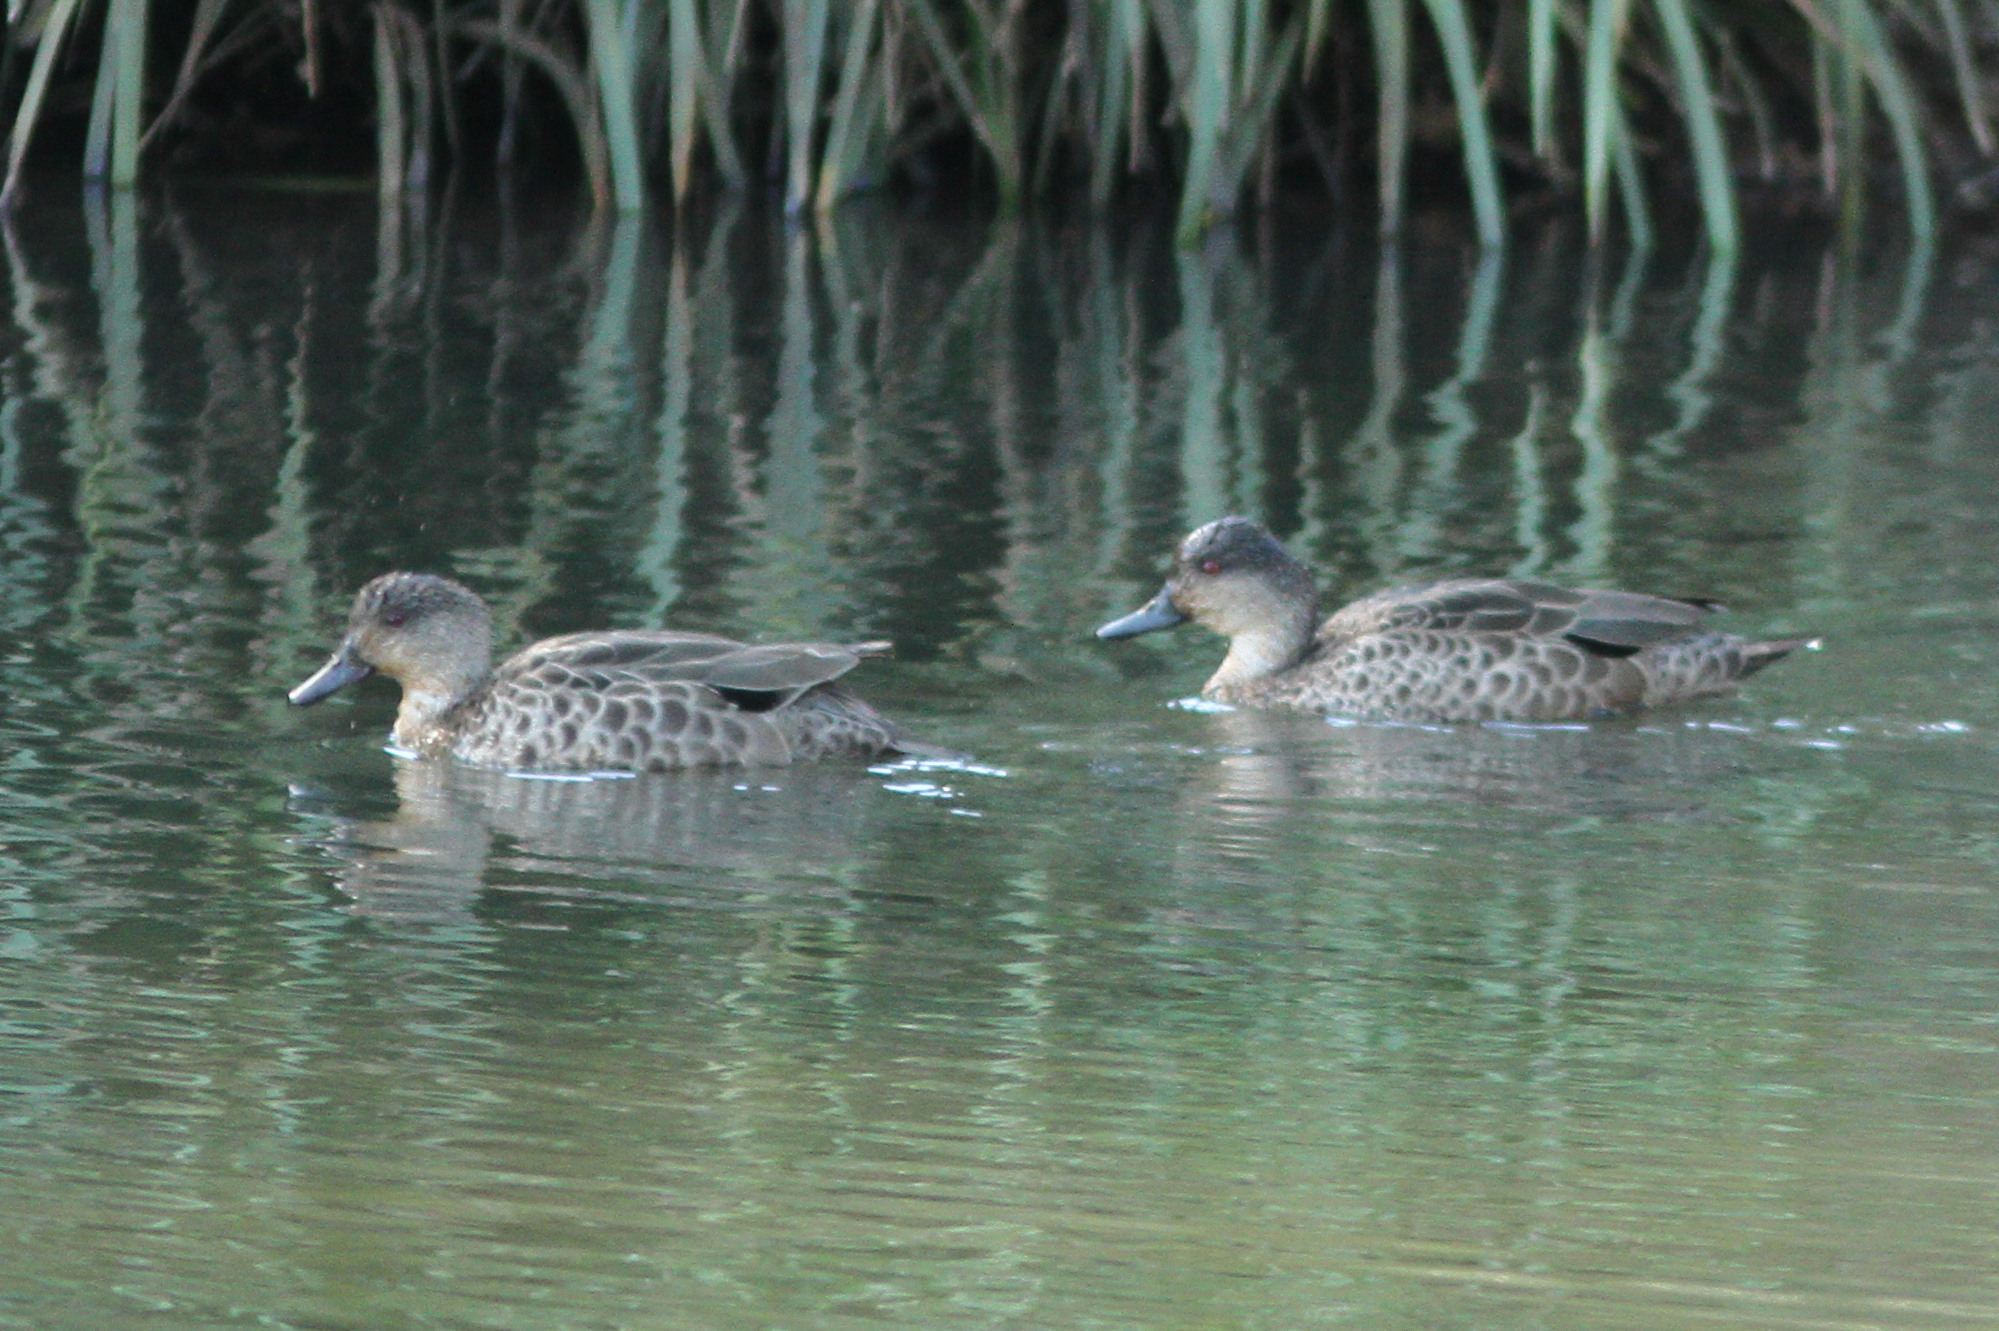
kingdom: Animalia
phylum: Chordata
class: Aves
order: Anseriformes
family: Anatidae
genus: Anas
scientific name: Anas gracilis
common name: Grey teal
